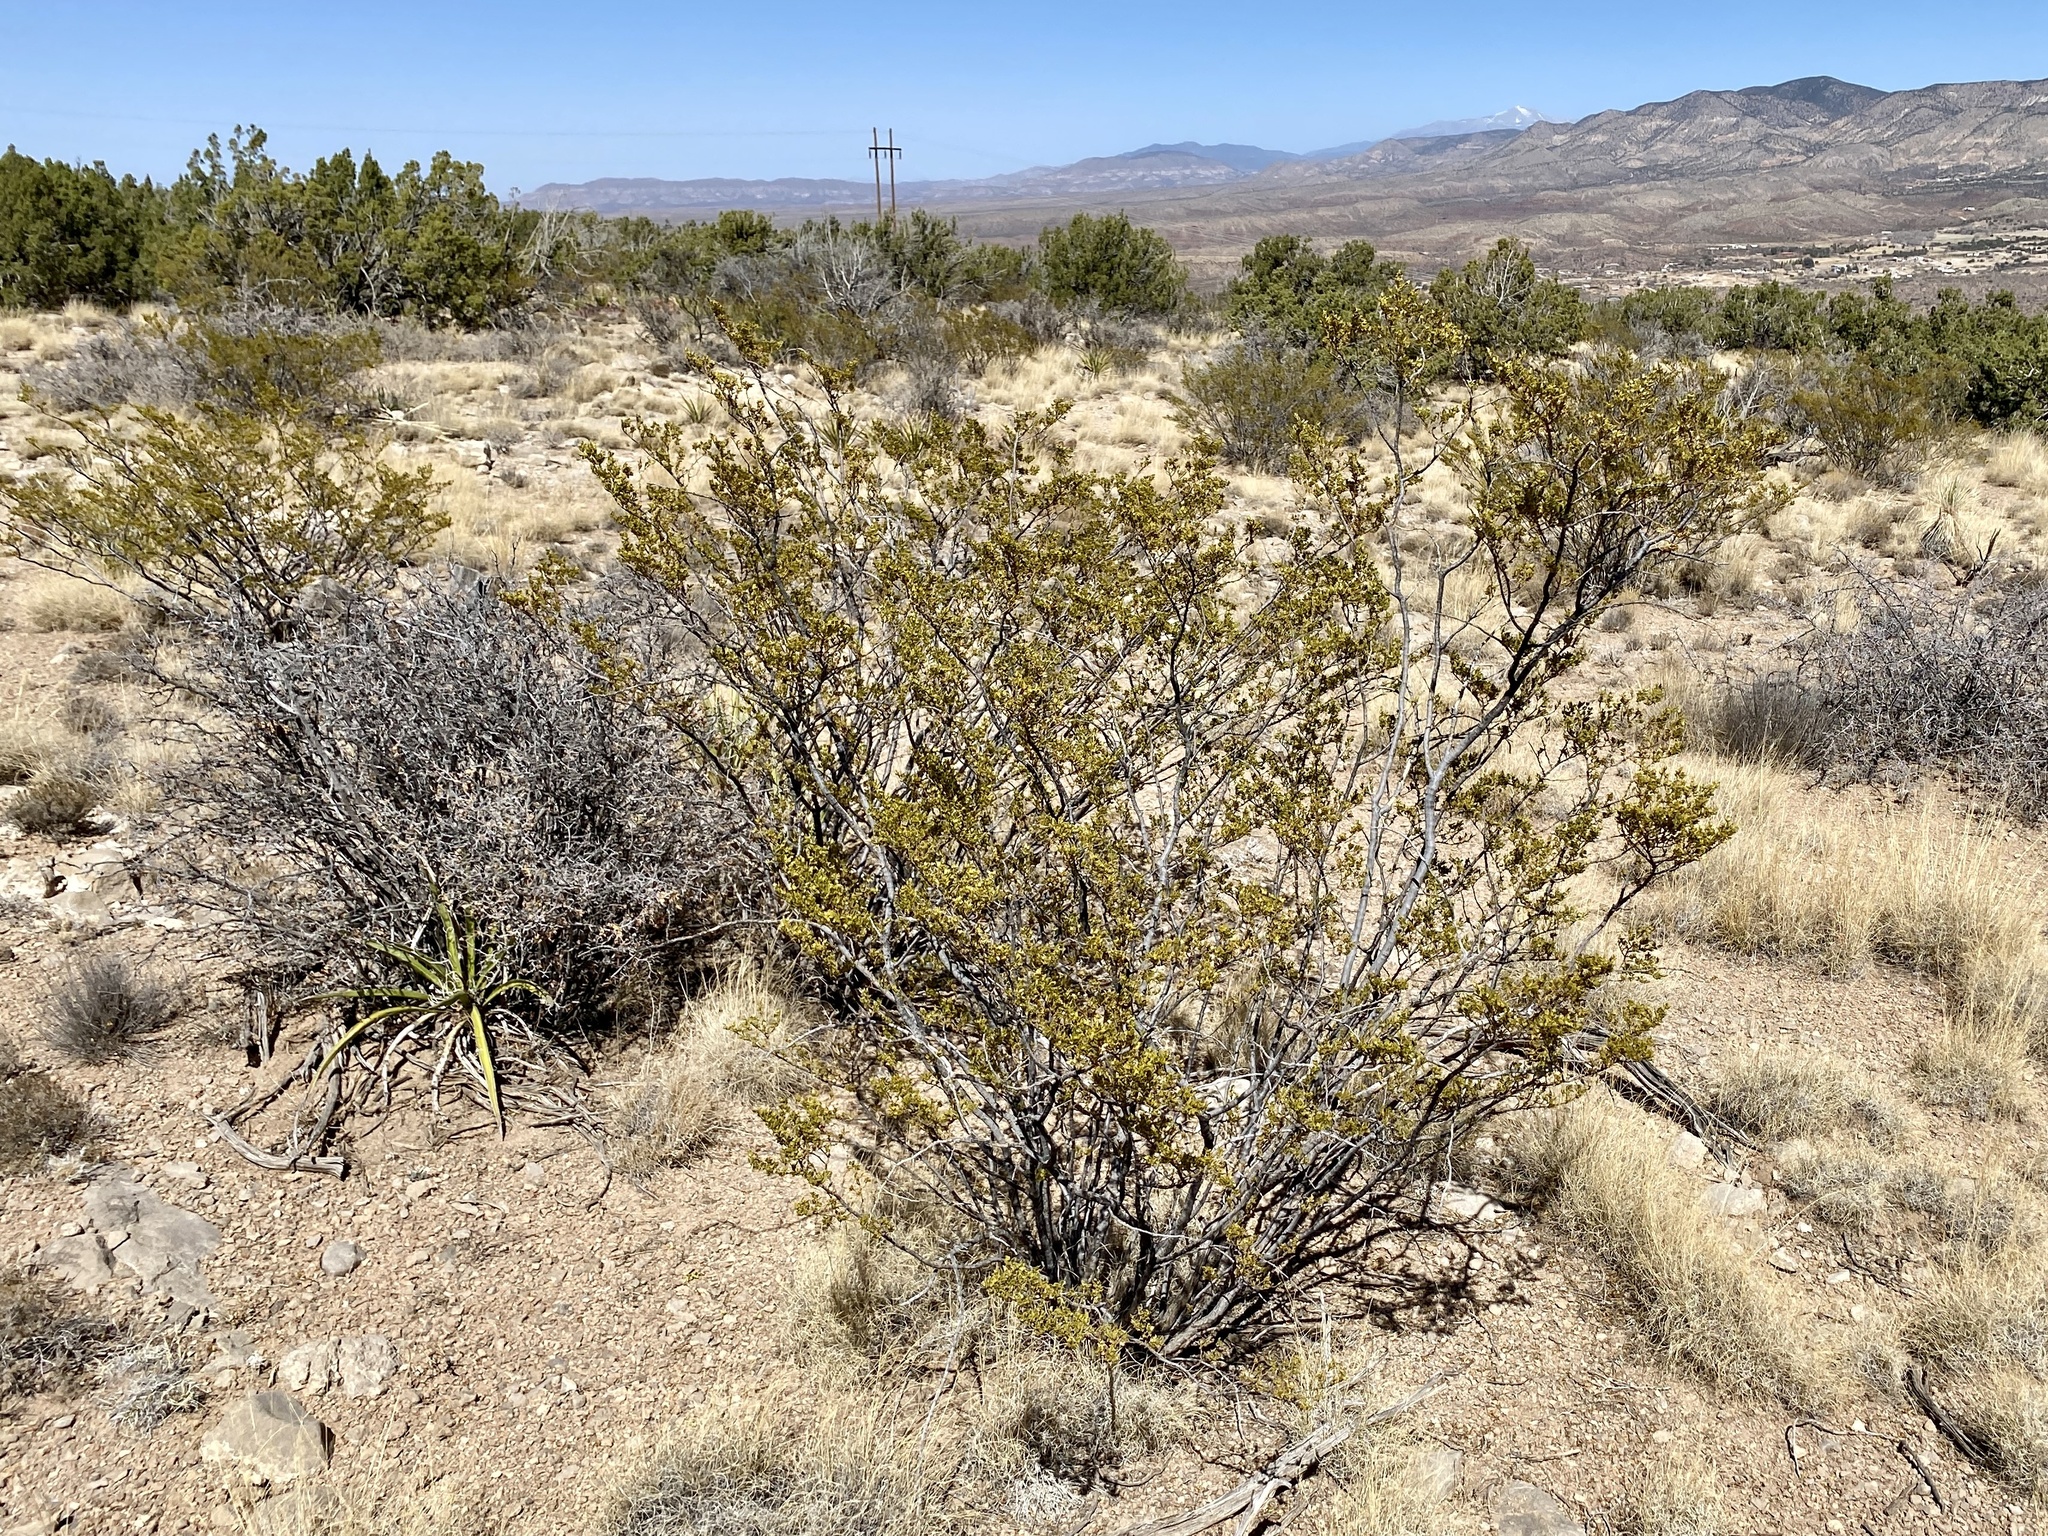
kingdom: Plantae
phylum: Tracheophyta
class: Magnoliopsida
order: Zygophyllales
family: Zygophyllaceae
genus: Larrea
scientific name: Larrea tridentata
